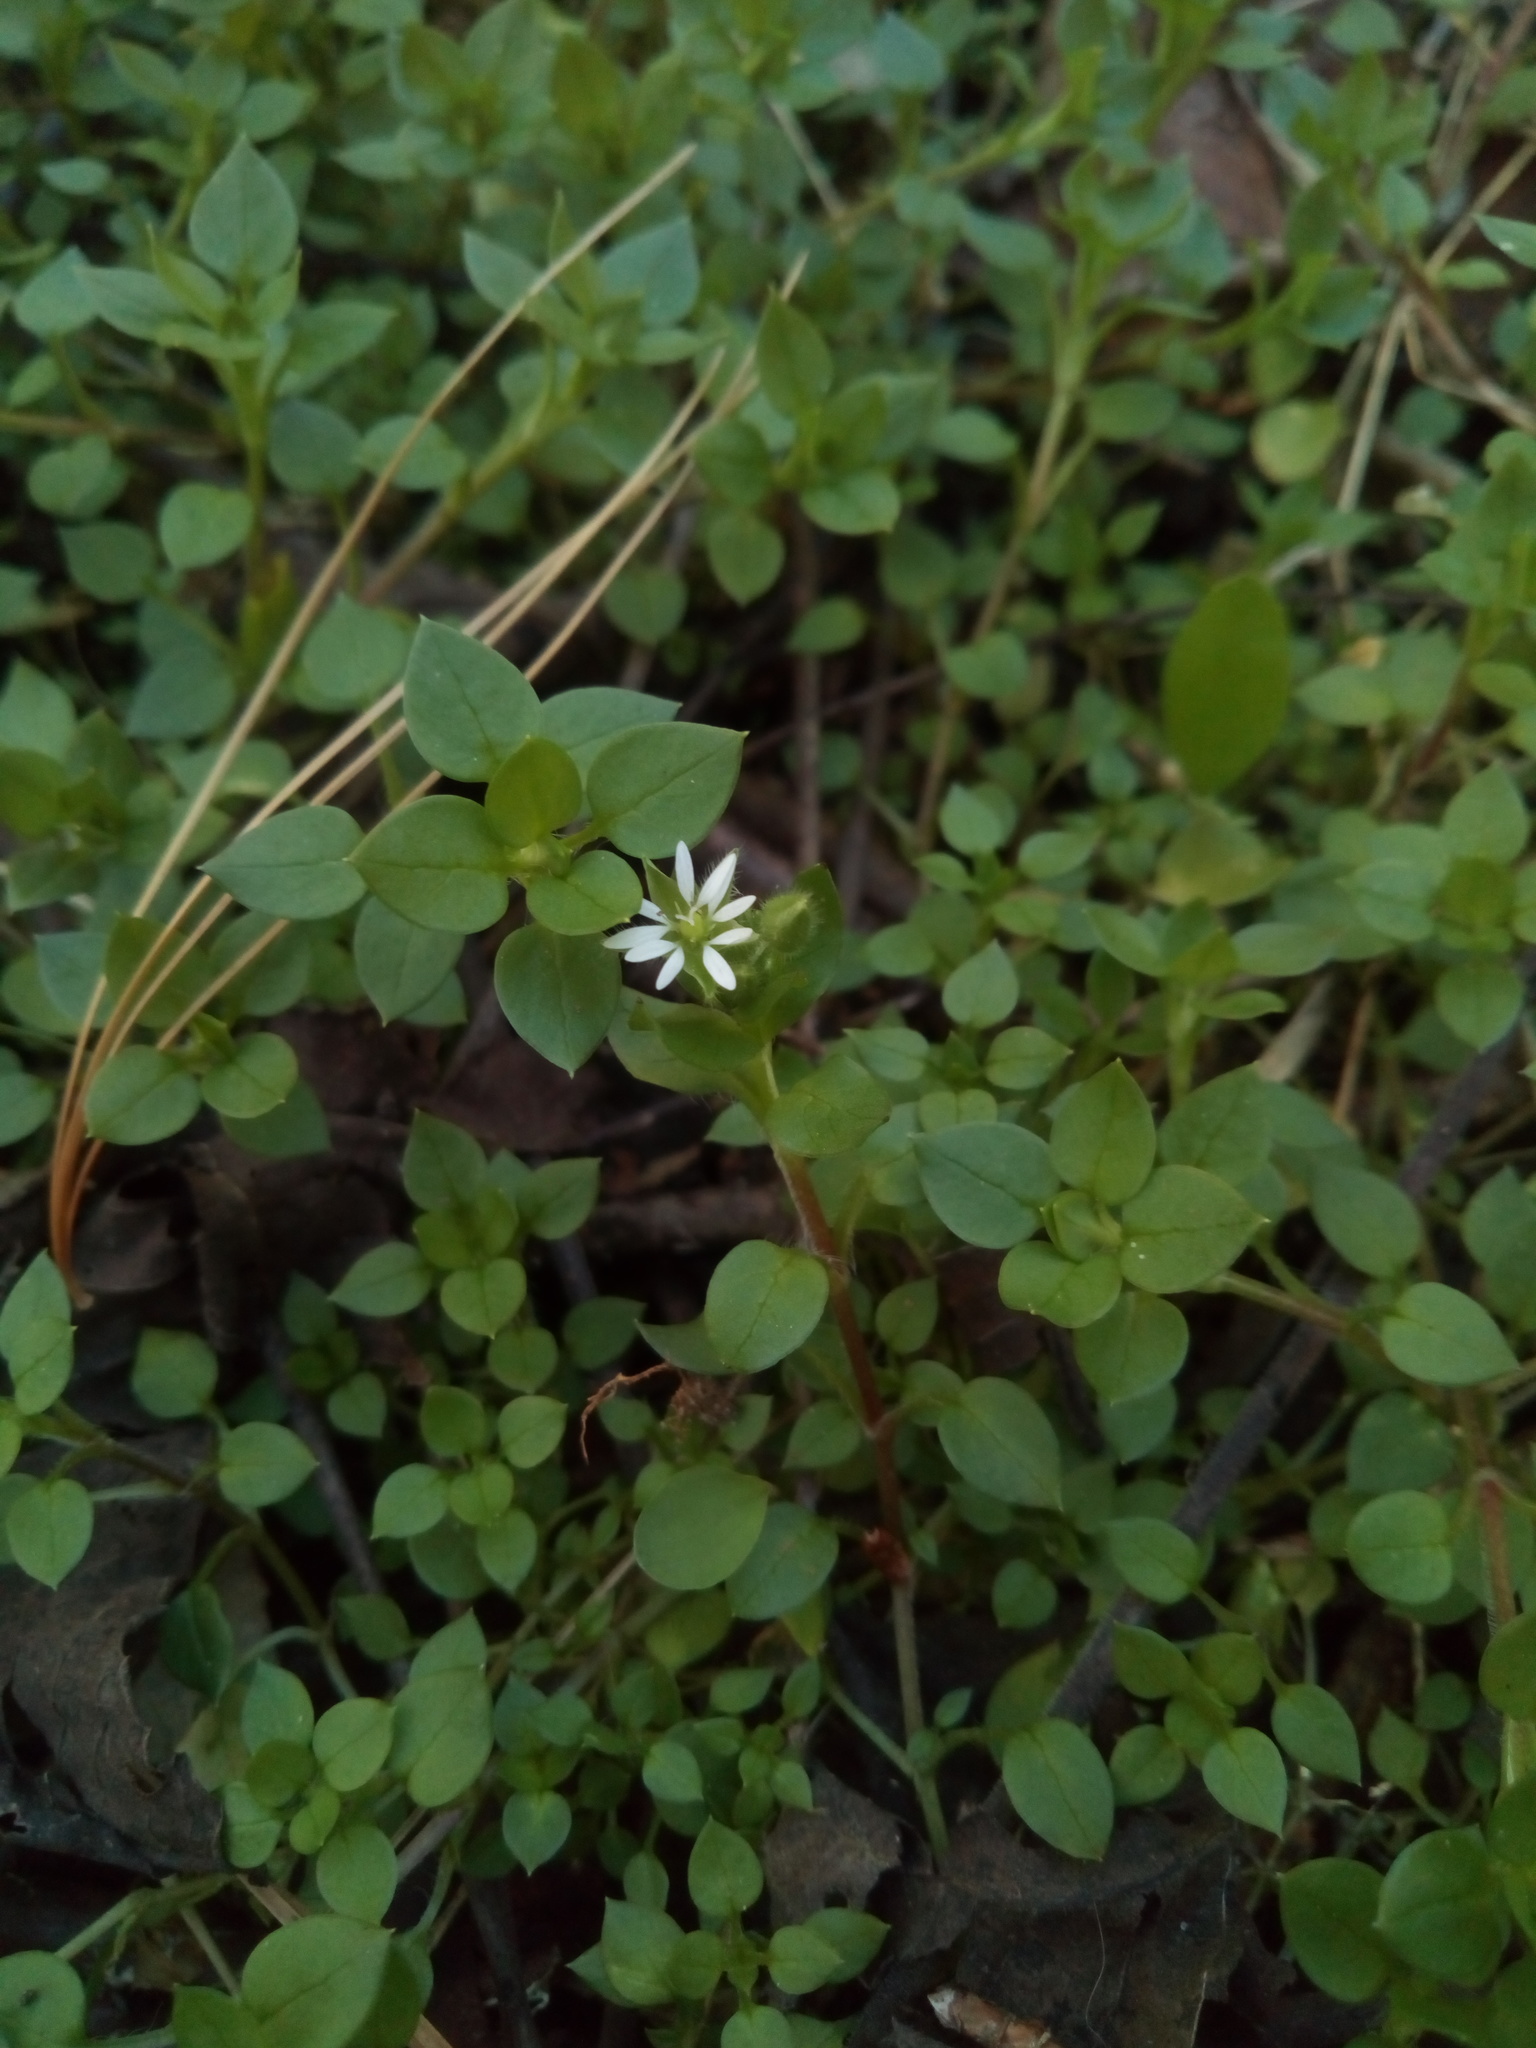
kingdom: Plantae
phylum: Tracheophyta
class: Magnoliopsida
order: Caryophyllales
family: Caryophyllaceae
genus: Stellaria
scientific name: Stellaria media
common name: Common chickweed
